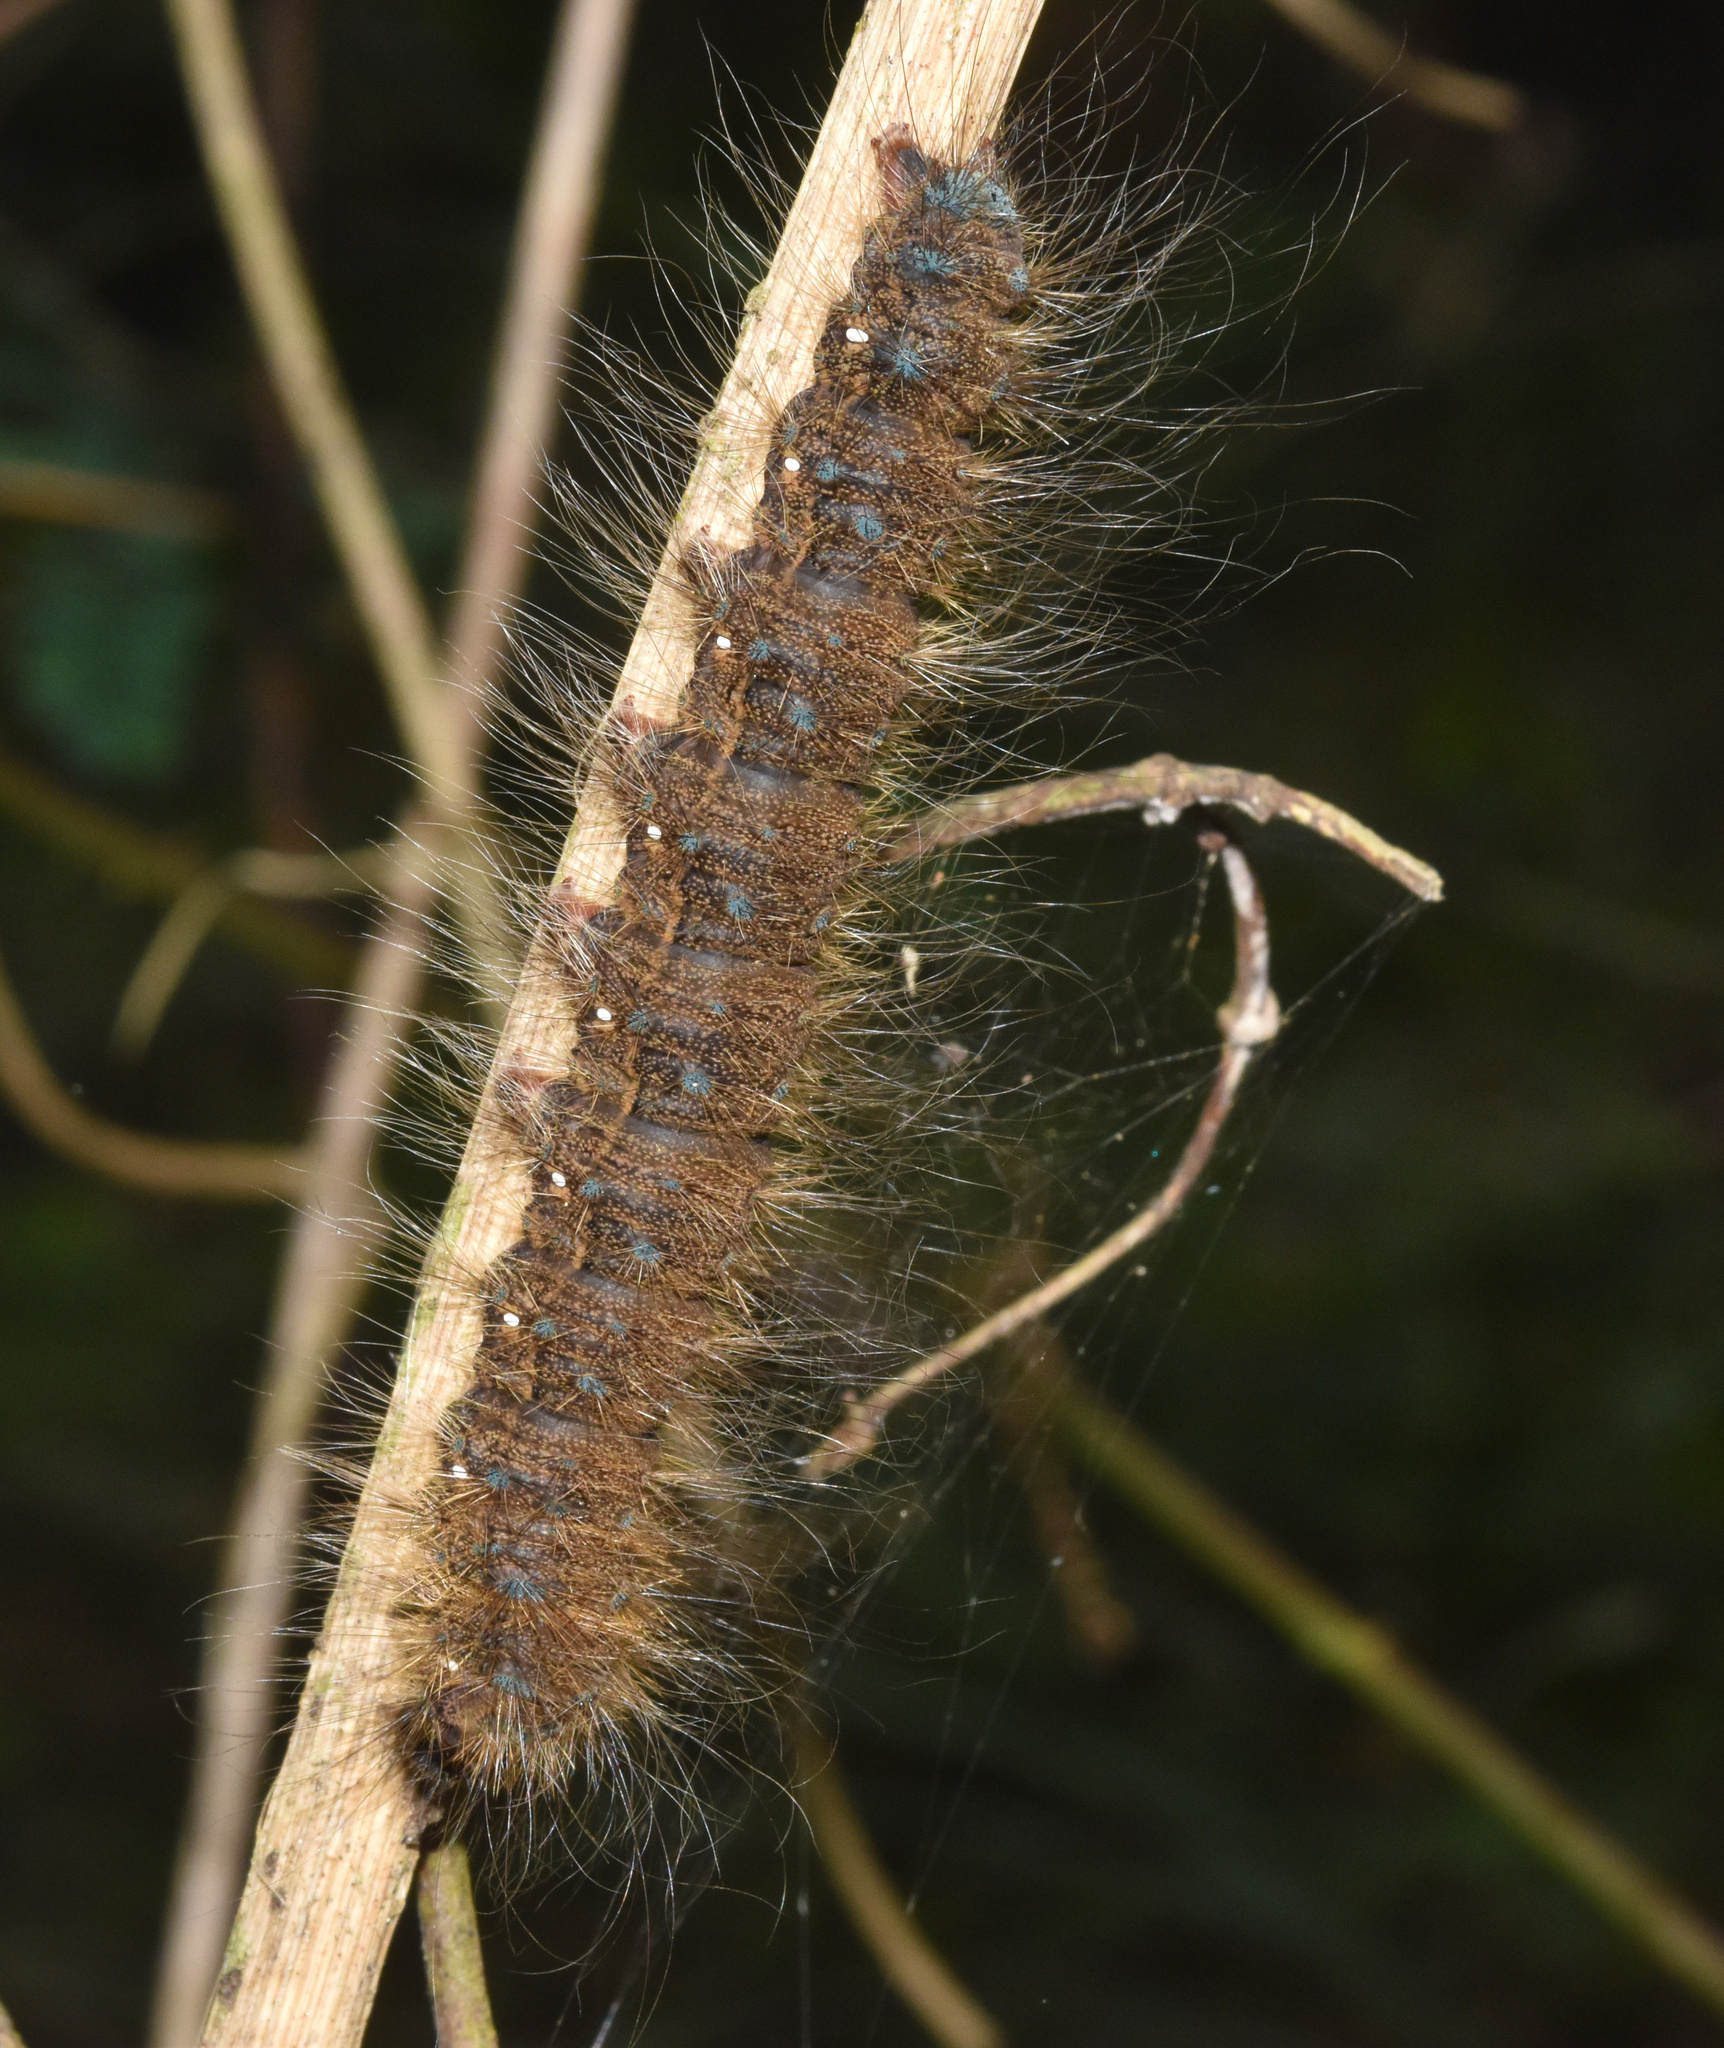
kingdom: Animalia
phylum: Arthropoda
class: Insecta
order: Lepidoptera
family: Eupterotidae
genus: Jana
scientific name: Jana eurymas
